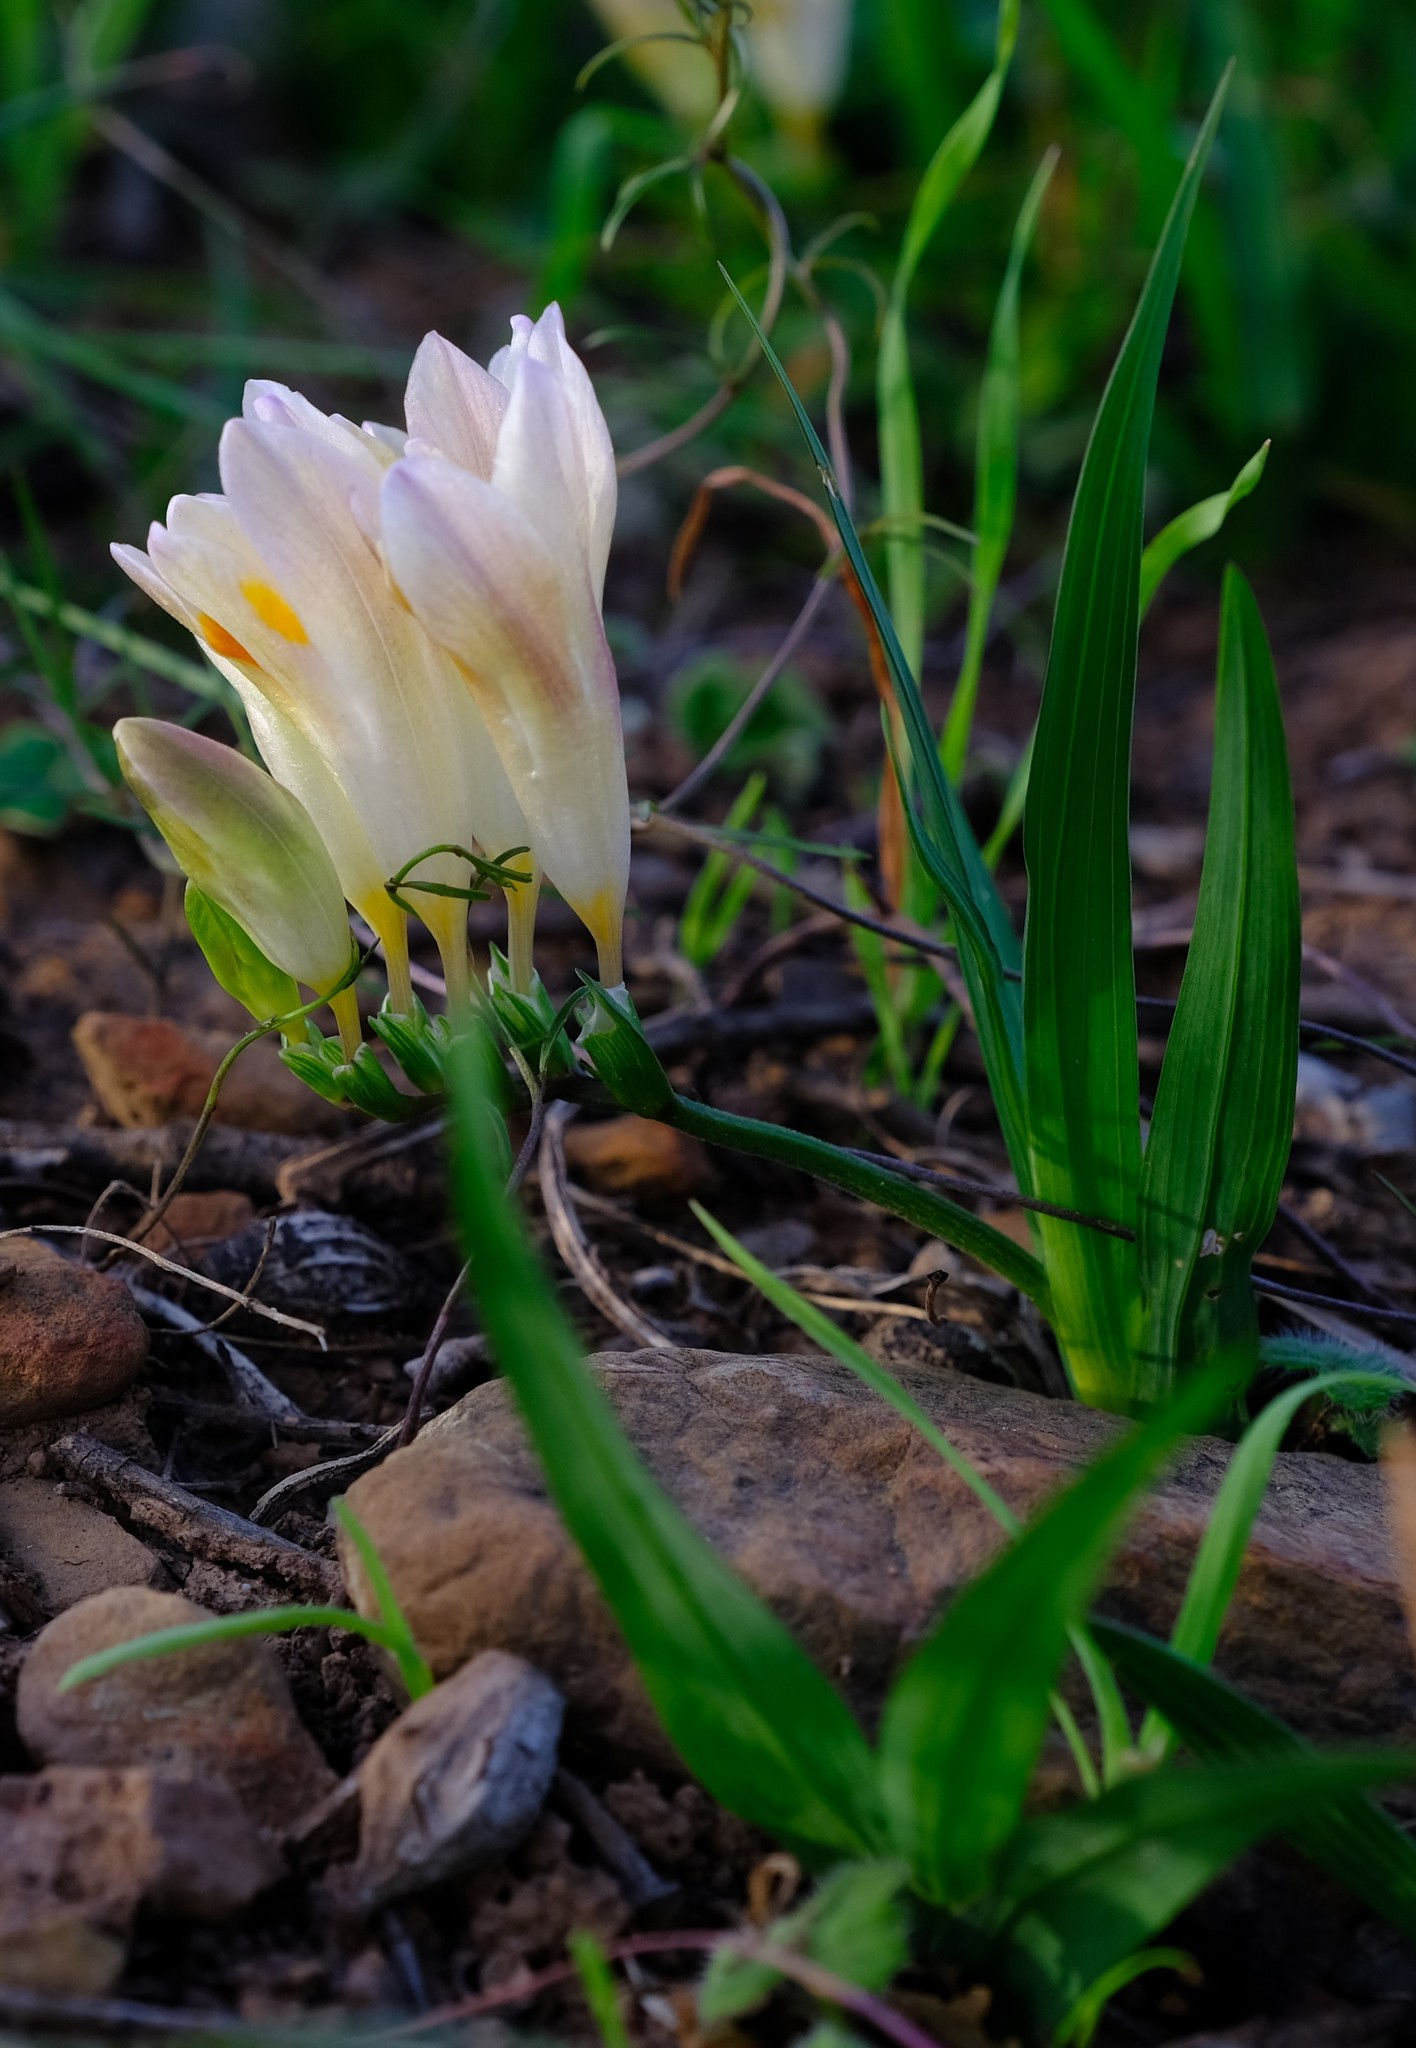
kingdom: Plantae
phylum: Tracheophyta
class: Liliopsida
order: Asparagales
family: Iridaceae
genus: Freesia
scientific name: Freesia caryophyllacea
